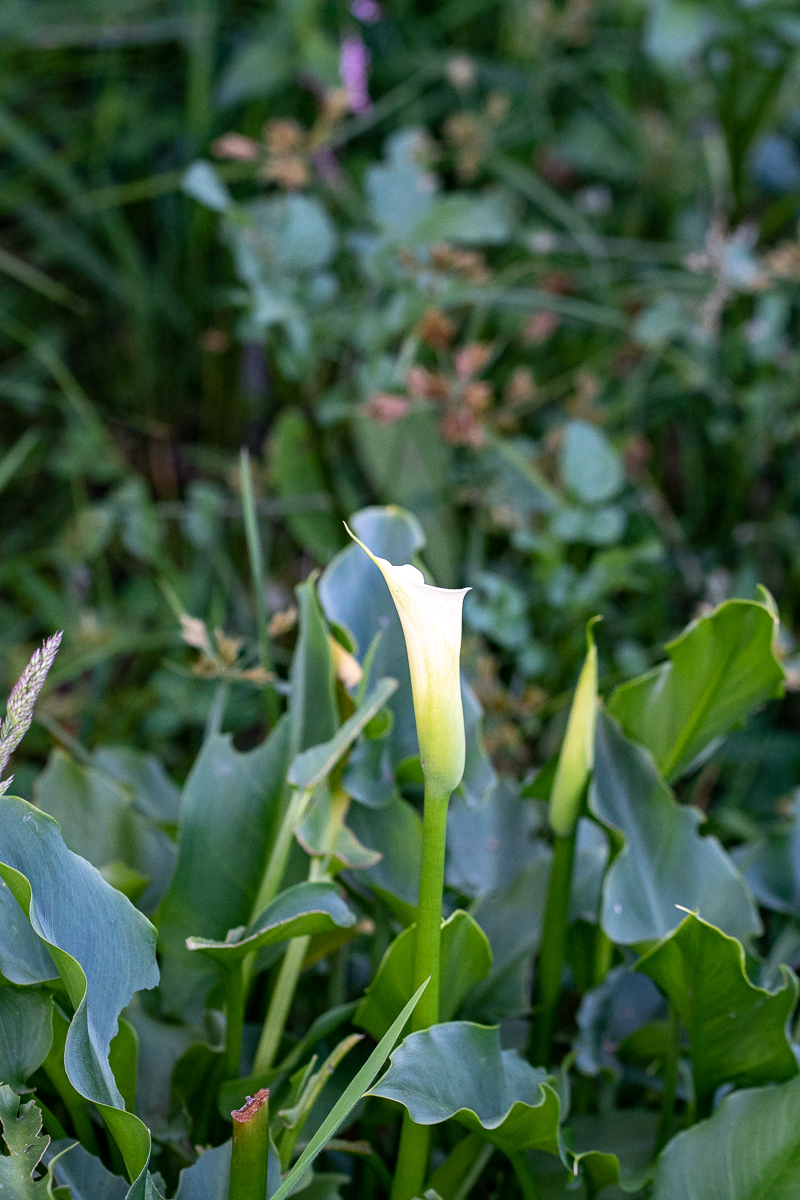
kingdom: Plantae
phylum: Tracheophyta
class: Liliopsida
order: Alismatales
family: Araceae
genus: Zantedeschia
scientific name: Zantedeschia aethiopica
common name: Altar-lily
